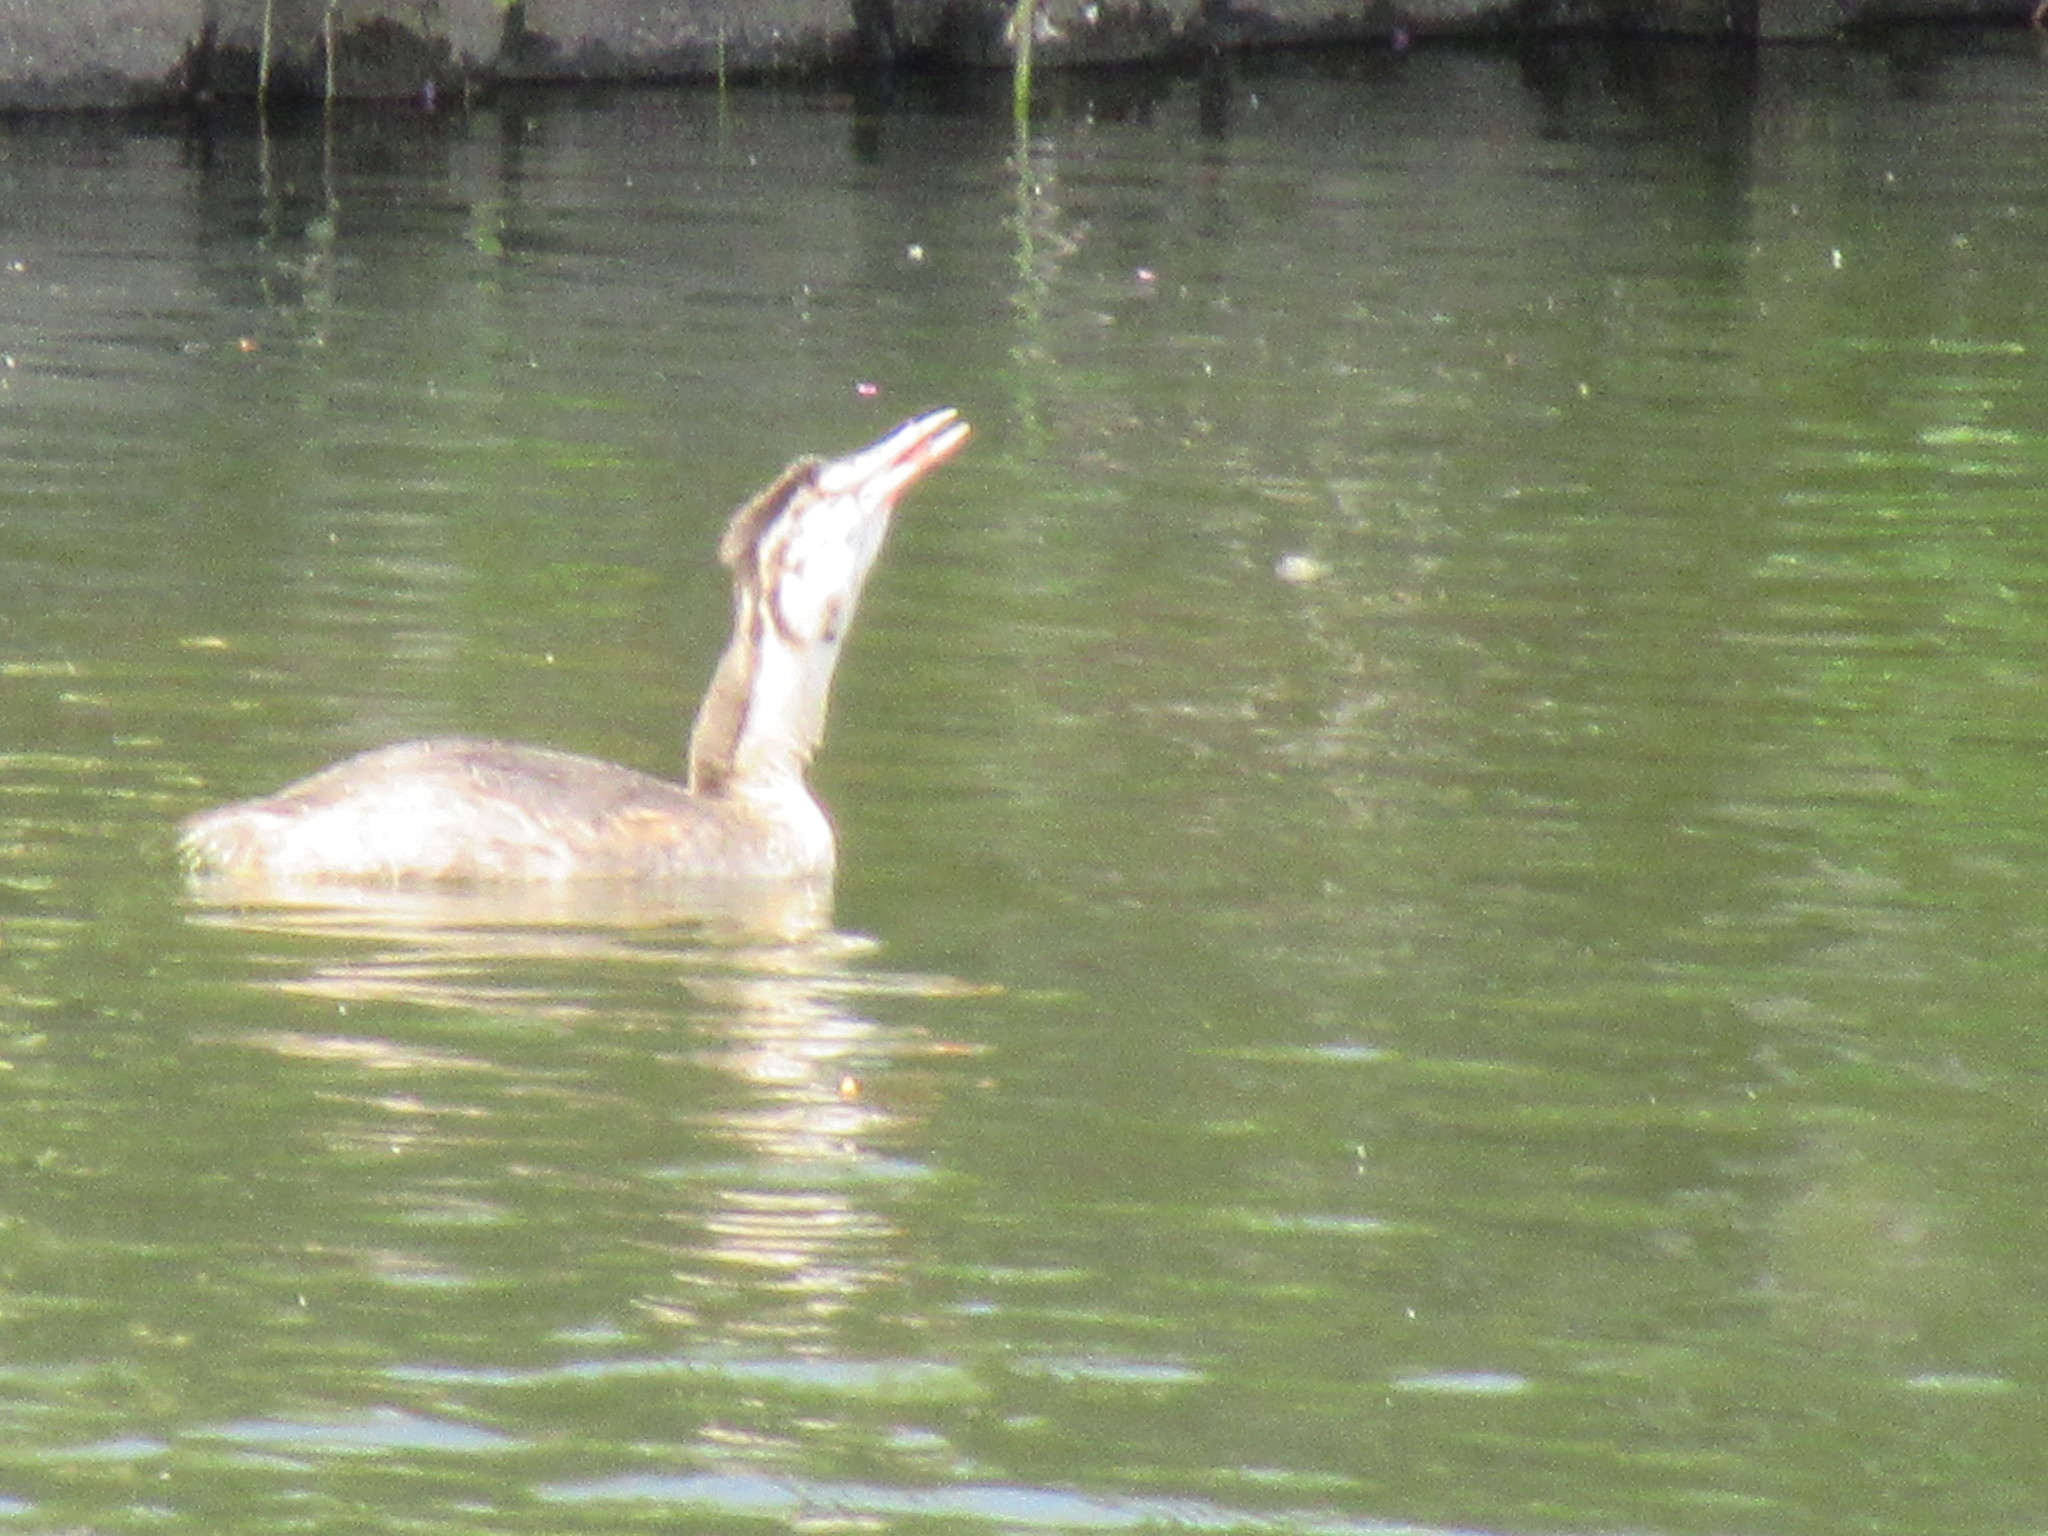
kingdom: Animalia
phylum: Chordata
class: Aves
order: Podicipediformes
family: Podicipedidae
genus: Podiceps
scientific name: Podiceps cristatus
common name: Great crested grebe
